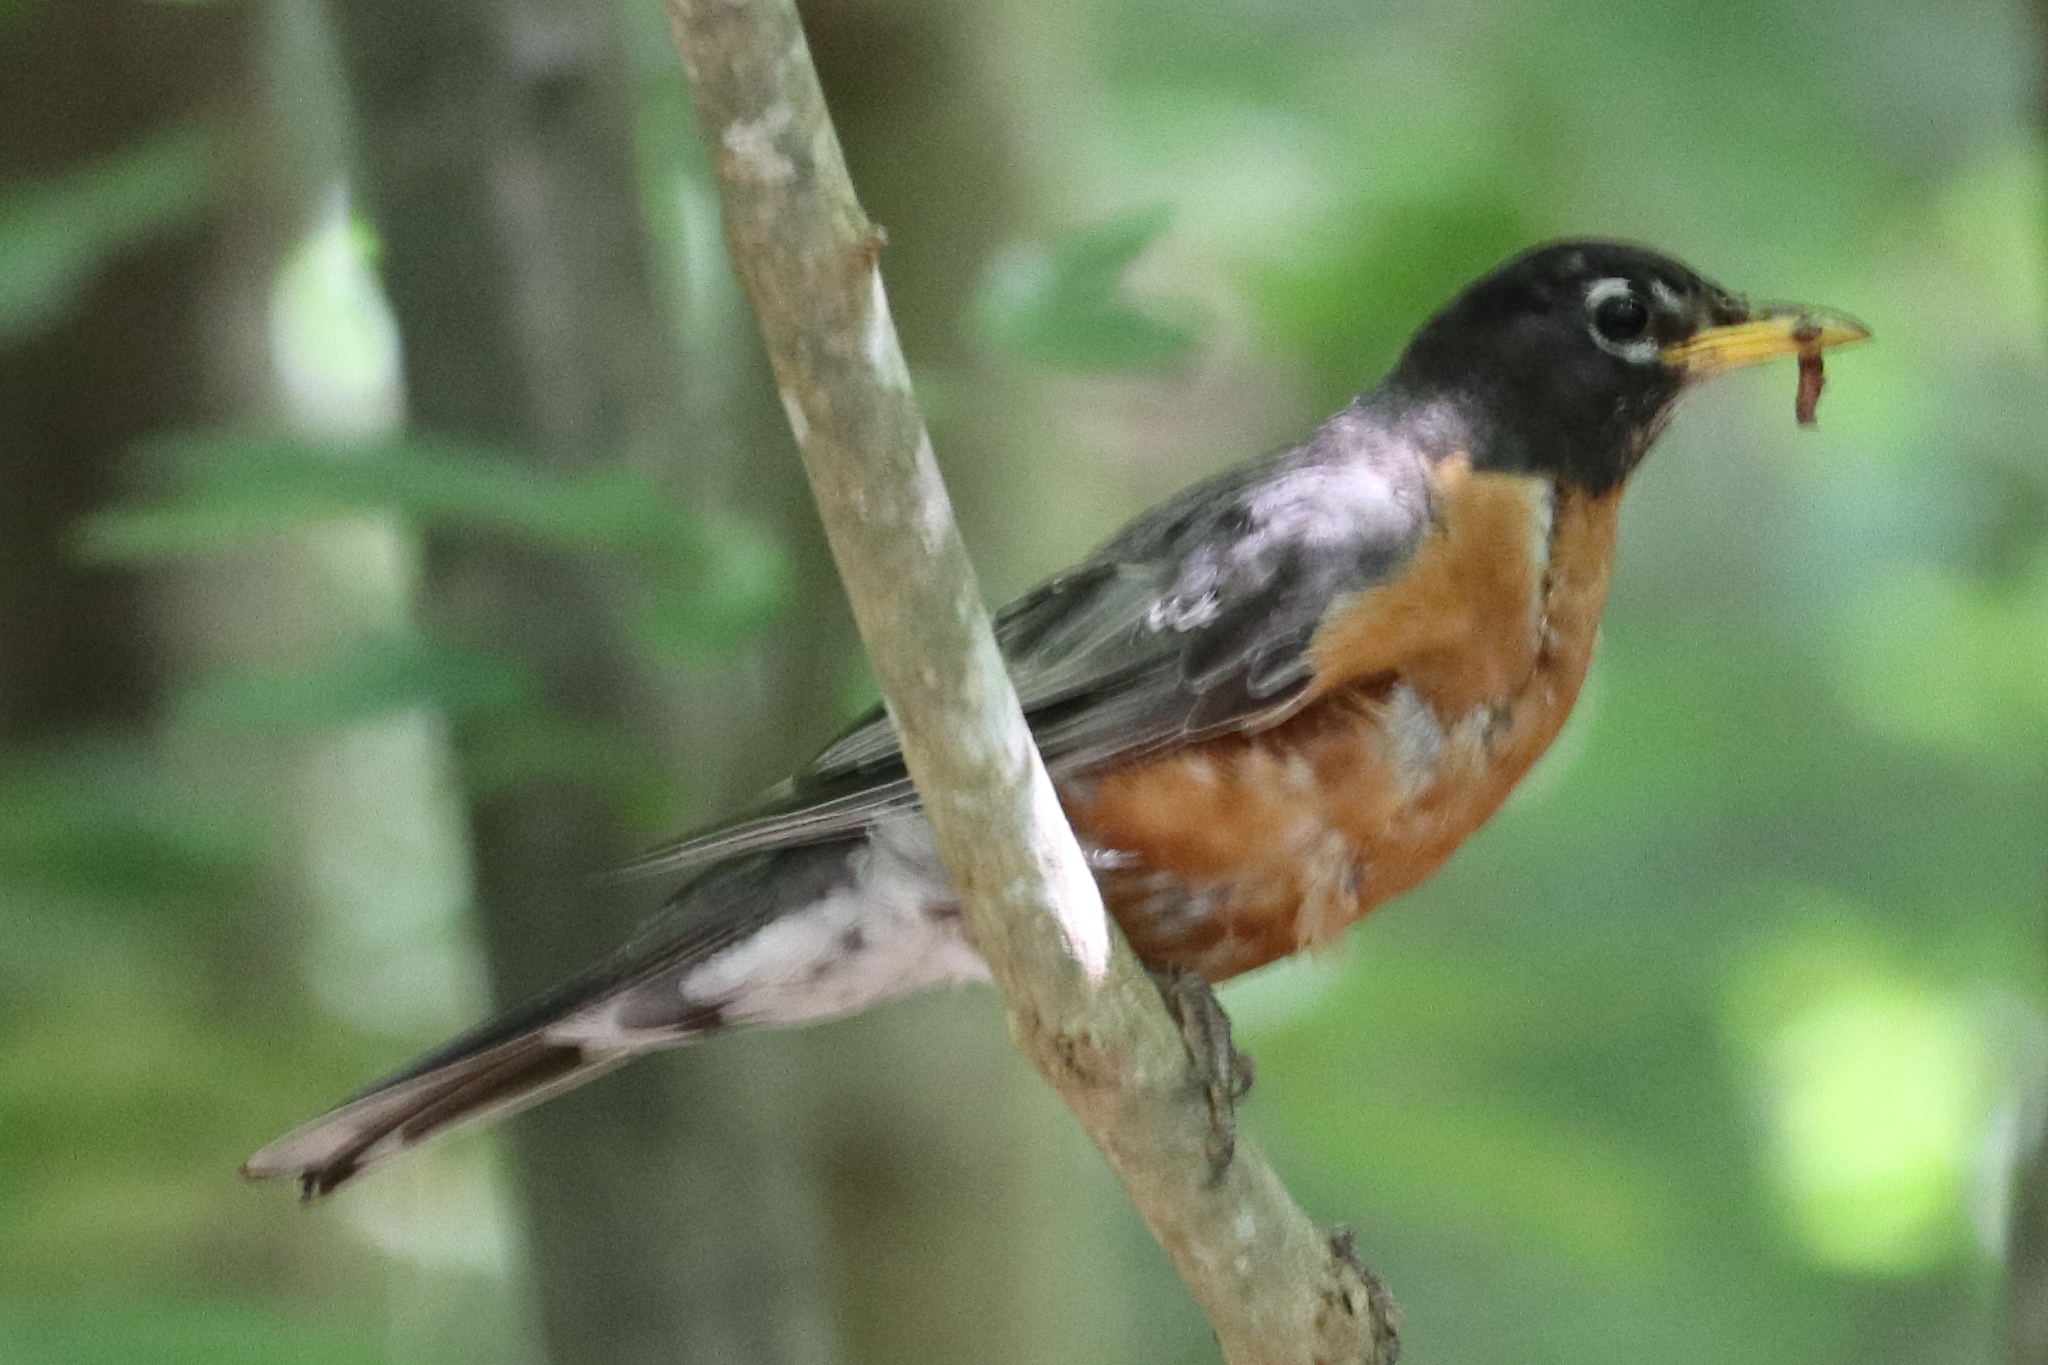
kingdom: Animalia
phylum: Chordata
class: Aves
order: Passeriformes
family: Turdidae
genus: Turdus
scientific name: Turdus migratorius
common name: American robin
